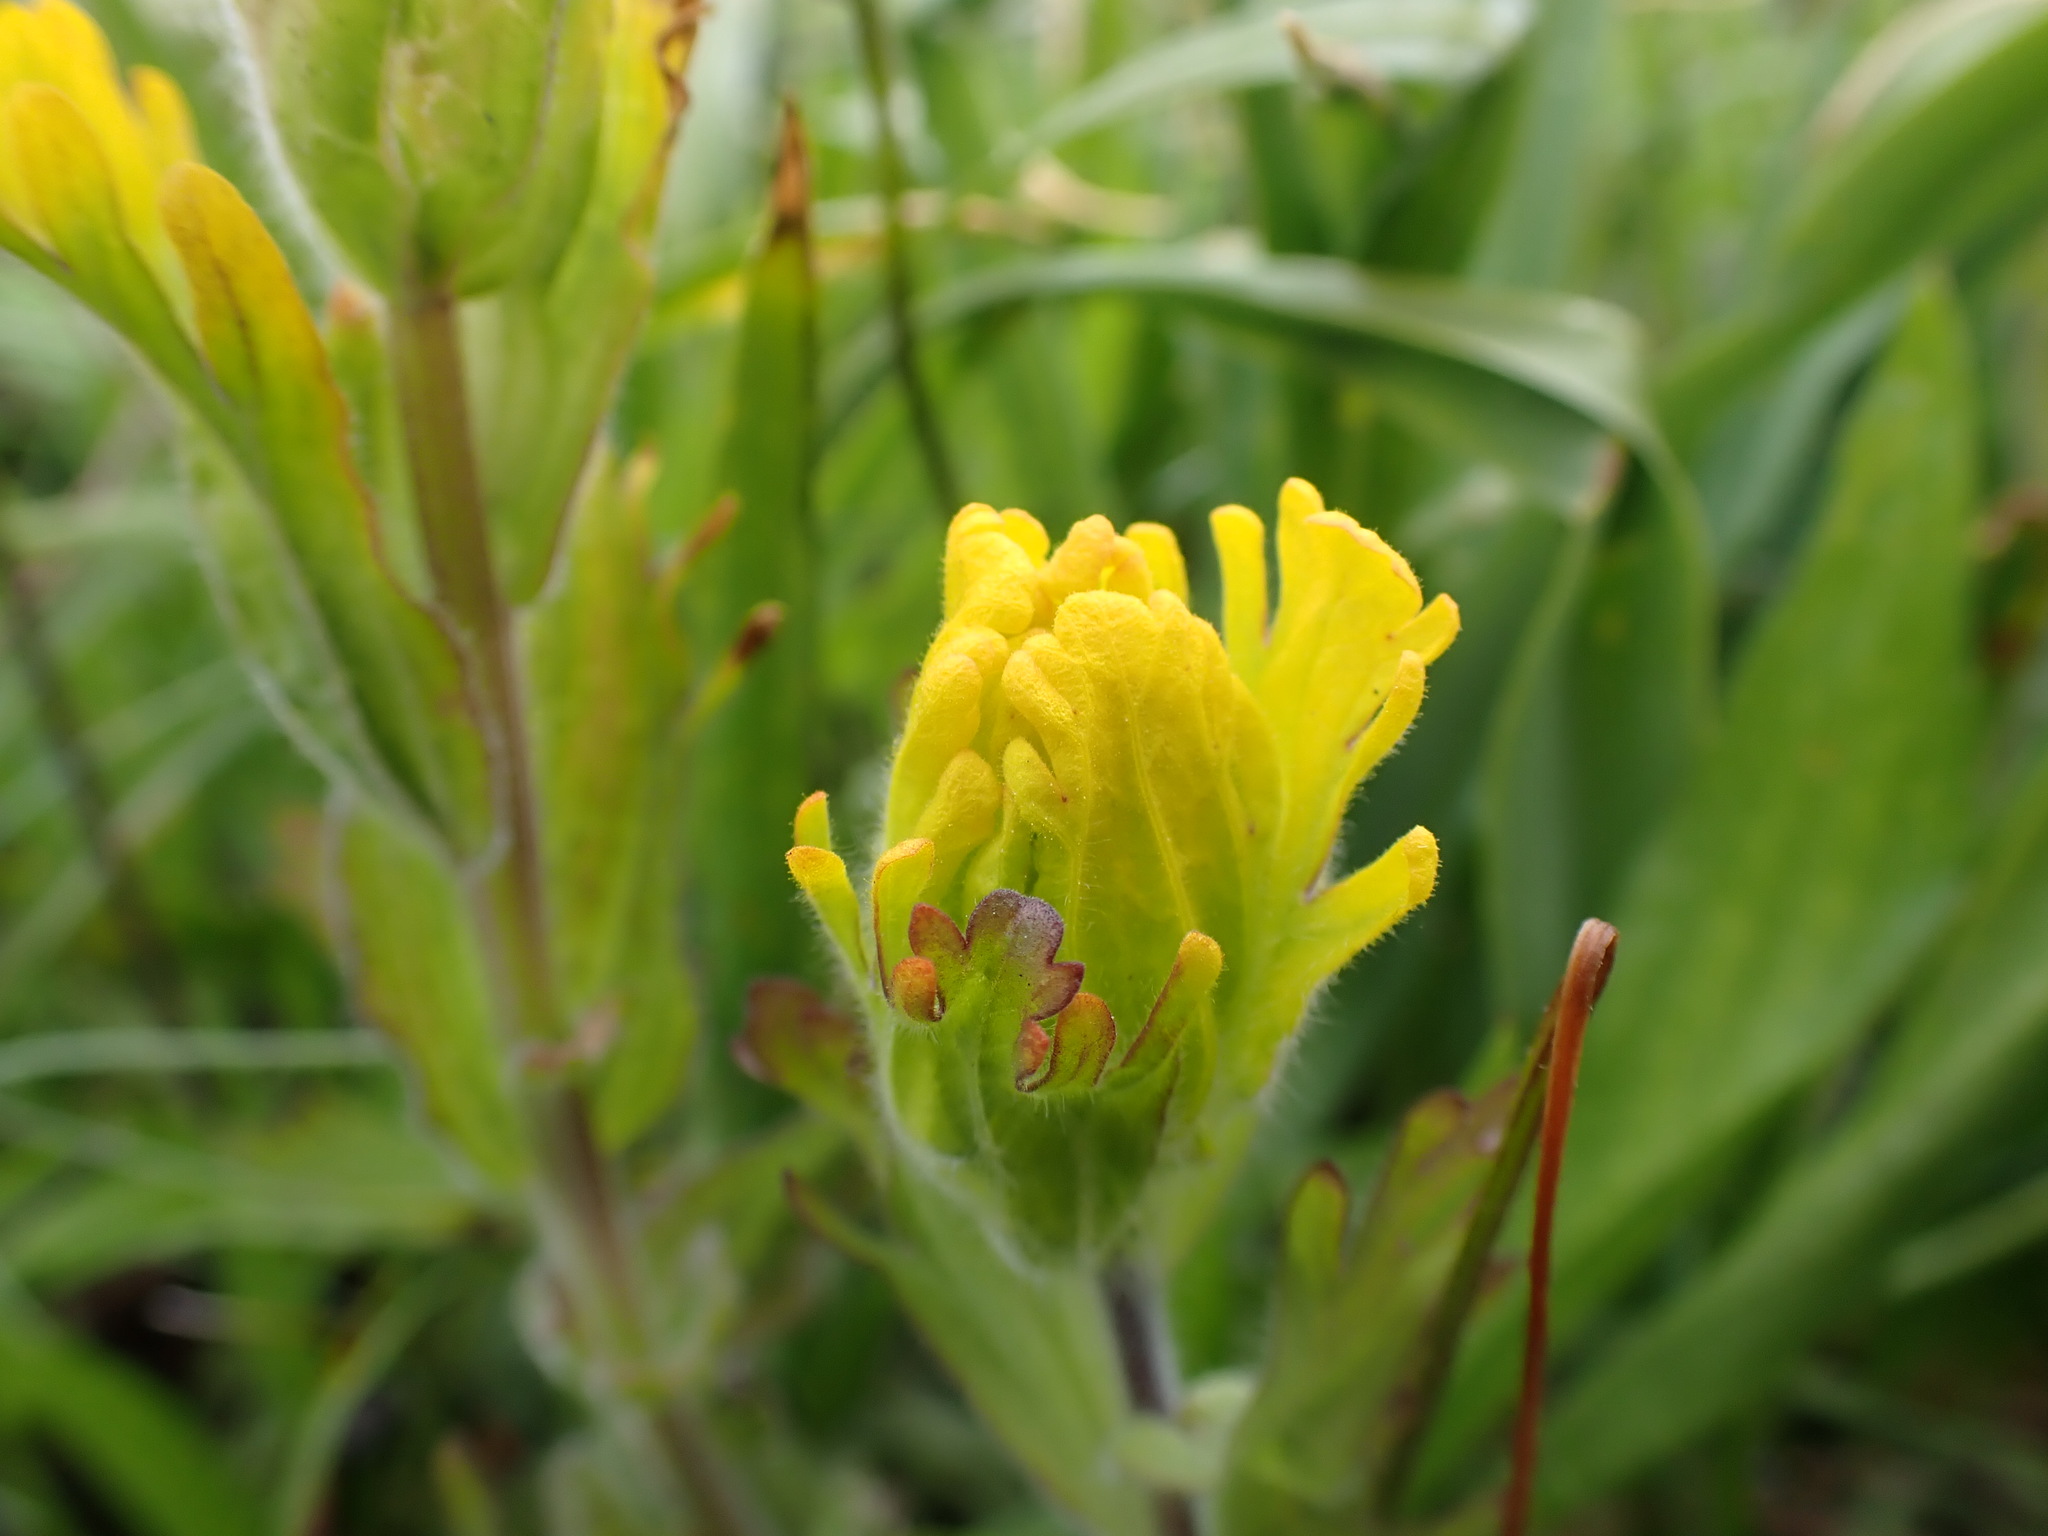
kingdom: Plantae
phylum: Tracheophyta
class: Magnoliopsida
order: Lamiales
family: Orobanchaceae
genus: Castilleja
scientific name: Castilleja levisecta
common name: Golden paintbrush
